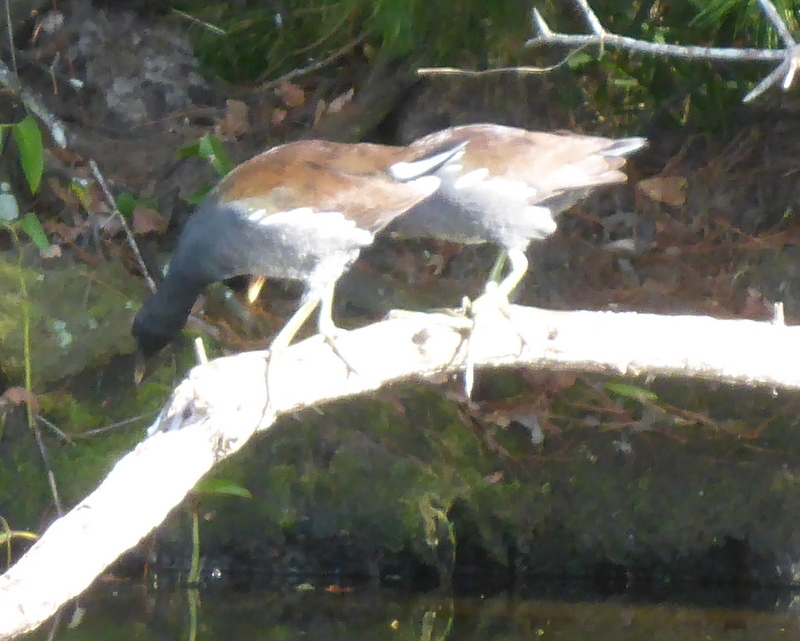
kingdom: Animalia
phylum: Chordata
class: Aves
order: Gruiformes
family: Rallidae
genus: Gallinula
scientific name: Gallinula chloropus
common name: Common moorhen
